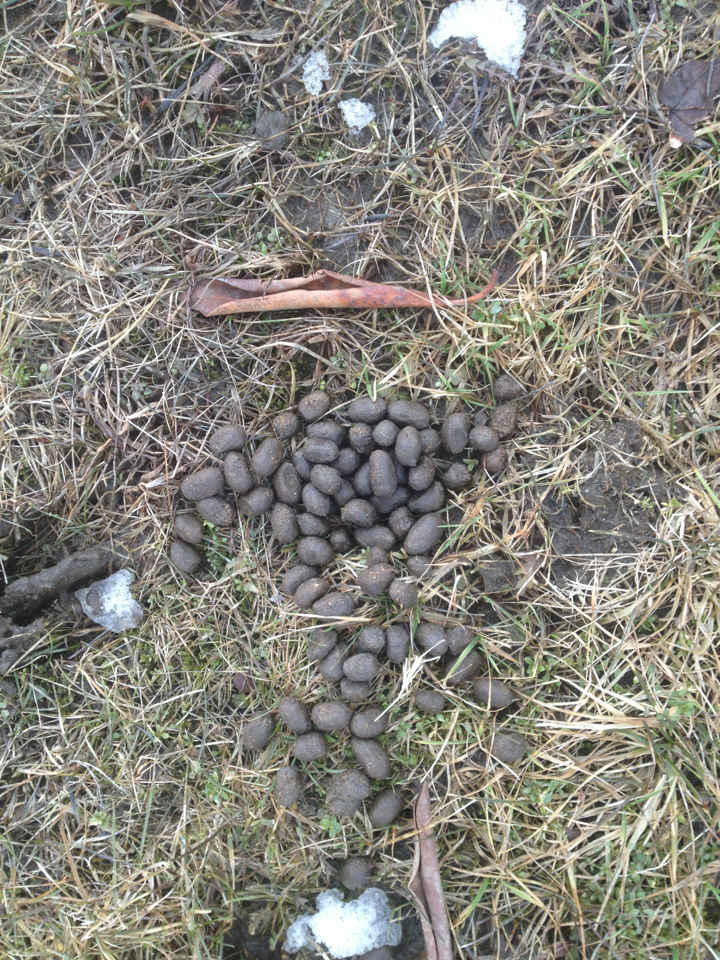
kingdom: Animalia
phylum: Chordata
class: Mammalia
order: Artiodactyla
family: Cervidae
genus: Odocoileus
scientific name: Odocoileus virginianus
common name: White-tailed deer
